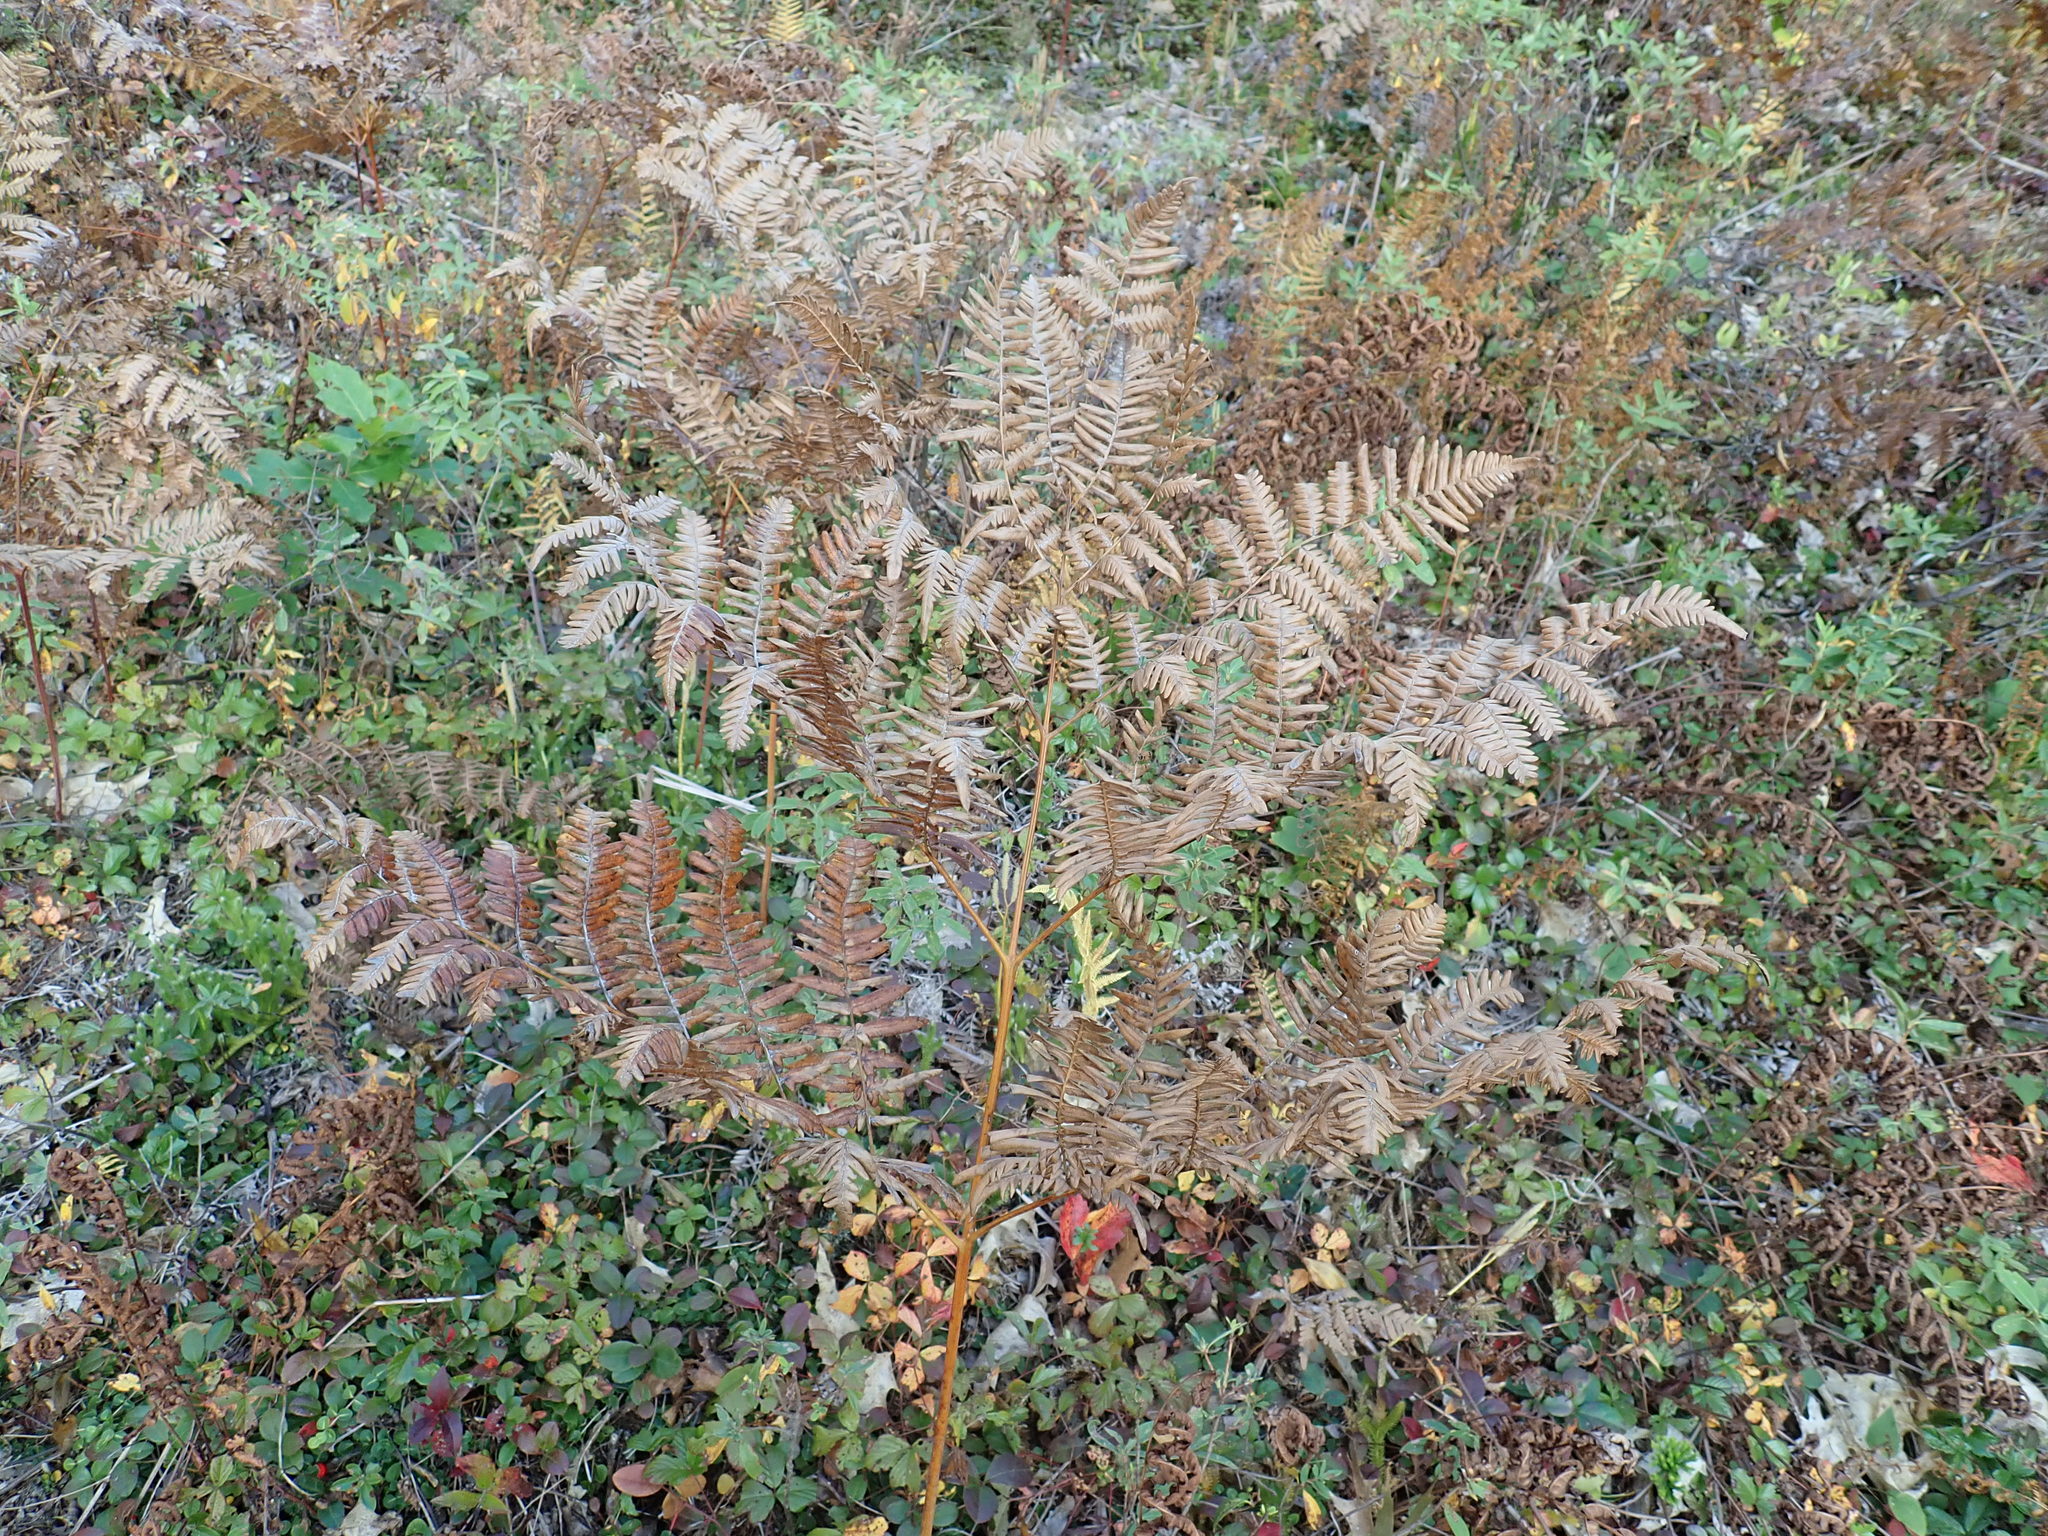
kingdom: Plantae
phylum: Tracheophyta
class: Polypodiopsida
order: Polypodiales
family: Dennstaedtiaceae
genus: Pteridium
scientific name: Pteridium aquilinum
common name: Bracken
